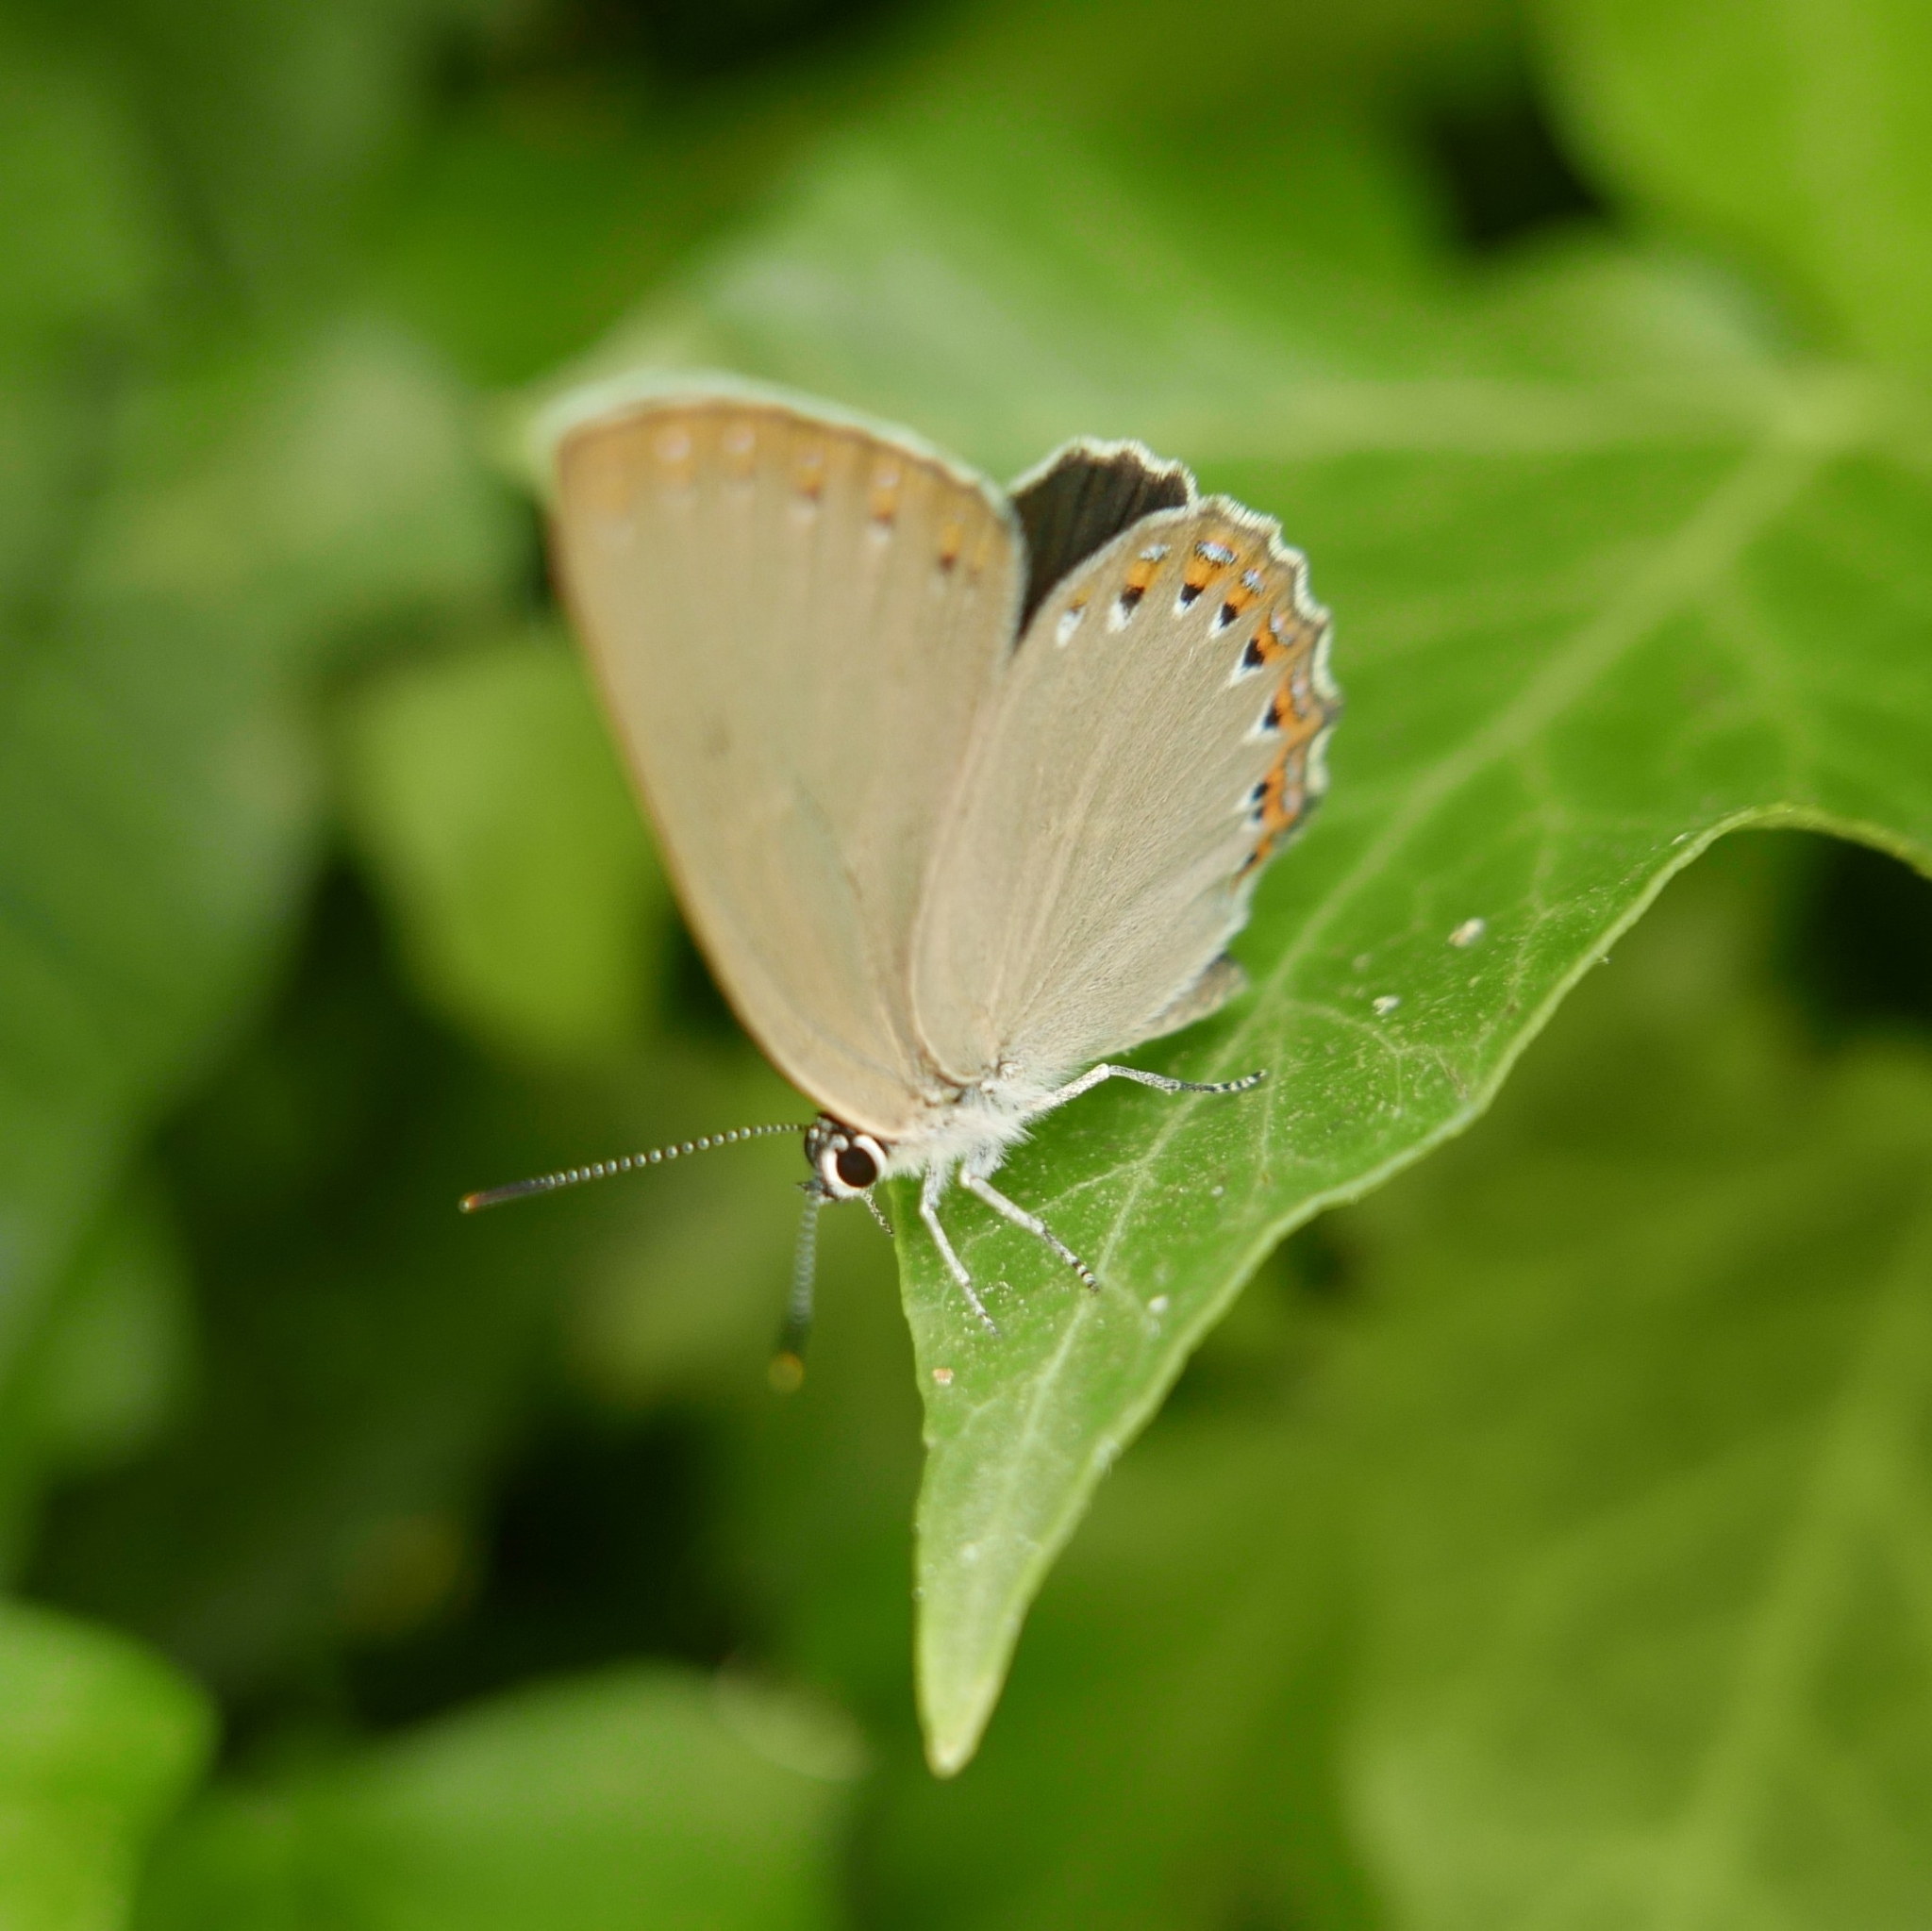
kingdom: Animalia
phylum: Arthropoda
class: Insecta
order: Lepidoptera
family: Lycaenidae
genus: Laeosopis
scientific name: Laeosopis roboris
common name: Spanish purple hairstreak
